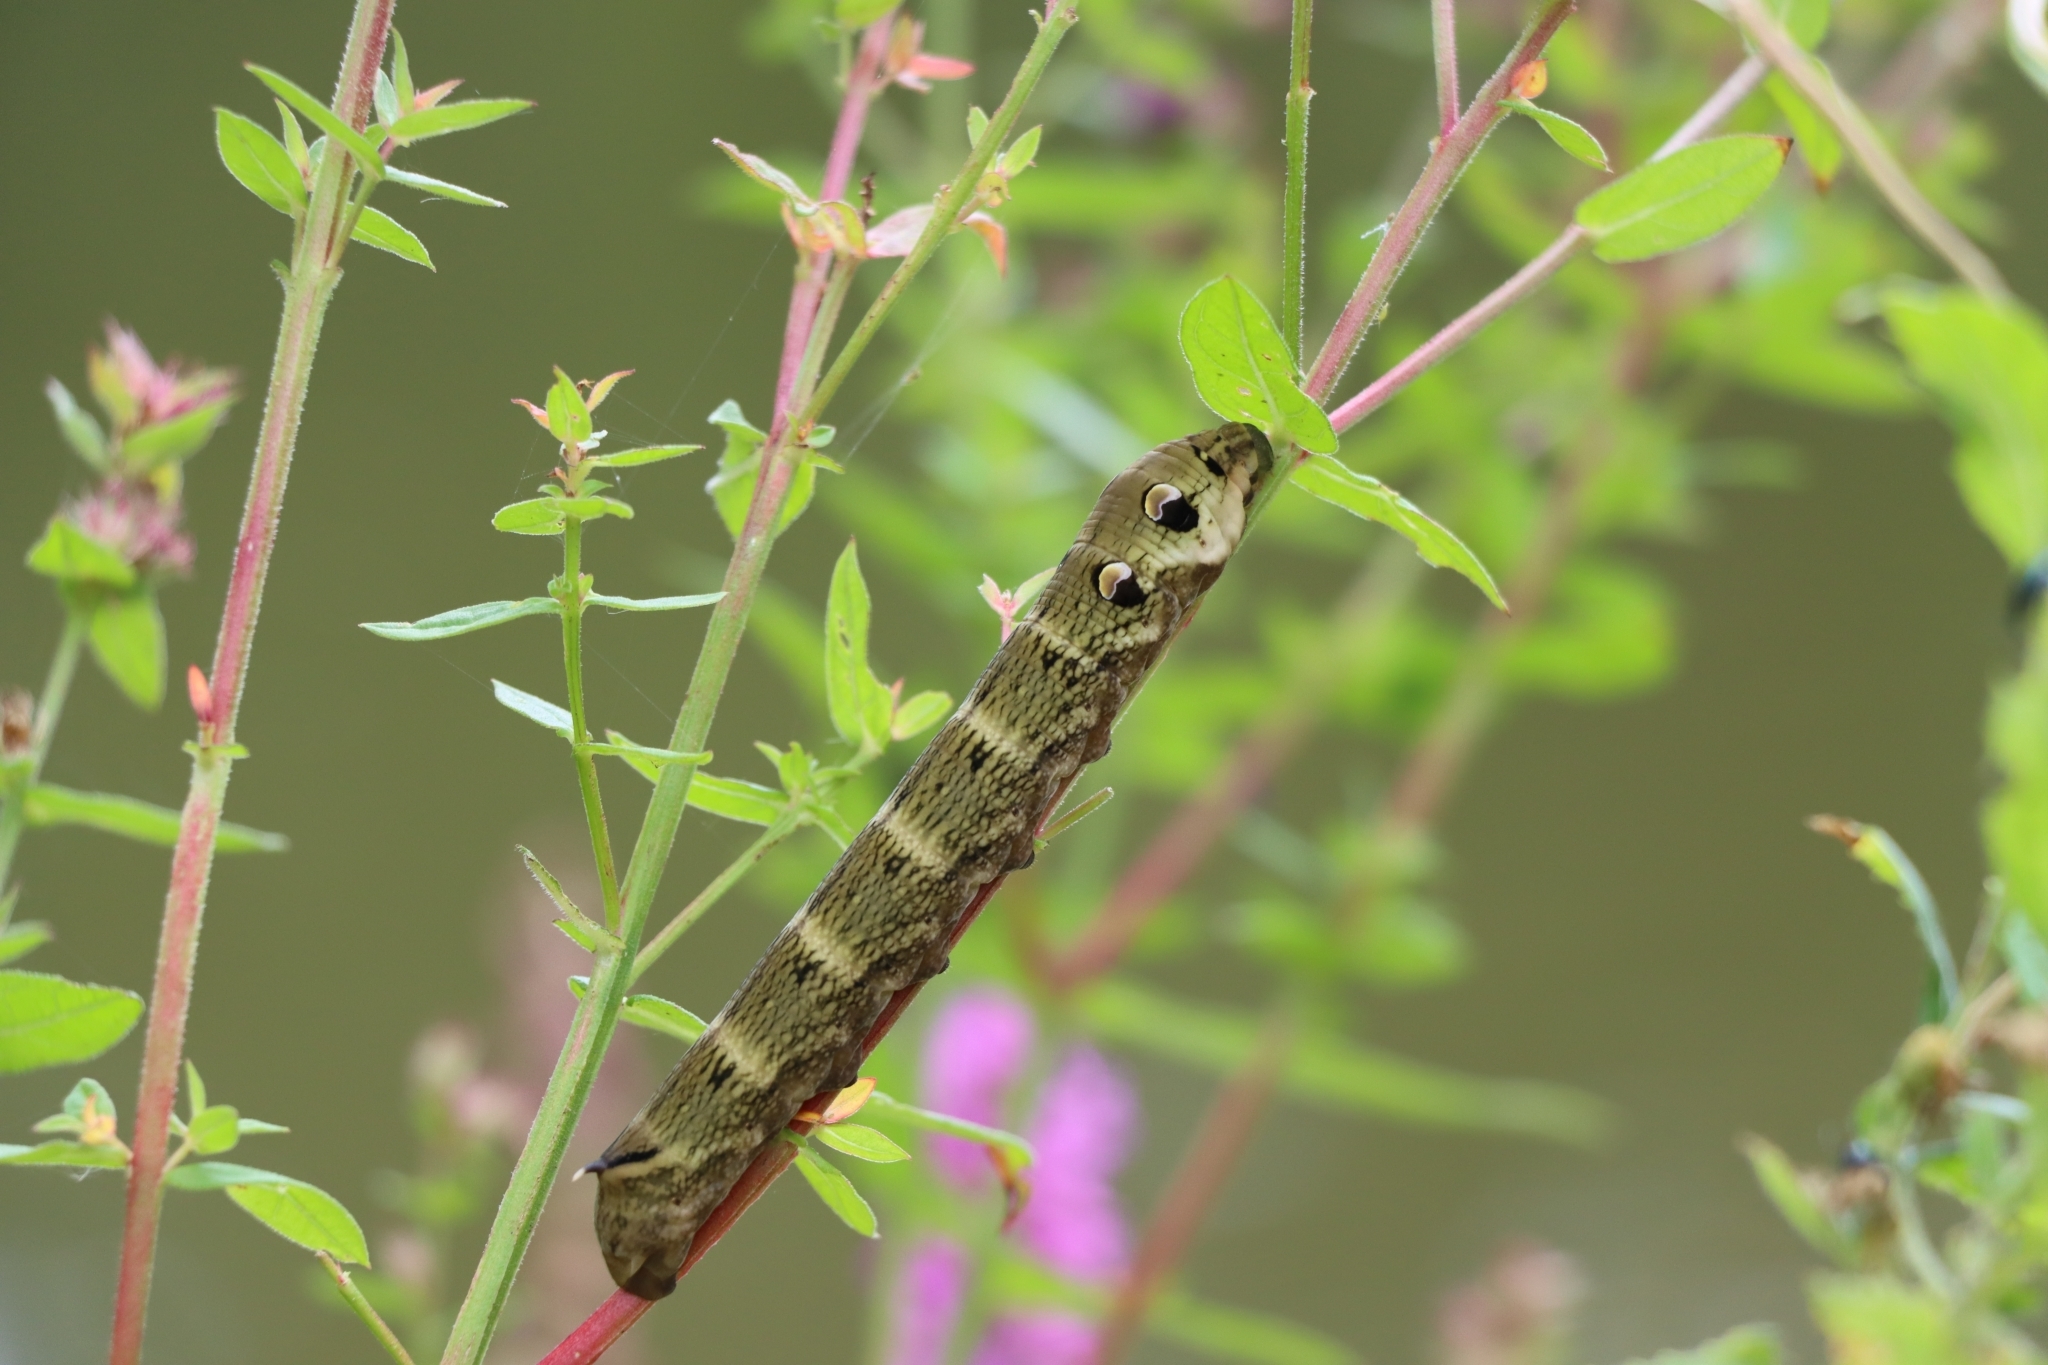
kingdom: Animalia
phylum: Arthropoda
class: Insecta
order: Lepidoptera
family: Sphingidae
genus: Deilephila
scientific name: Deilephila elpenor
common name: Elephant hawk-moth
